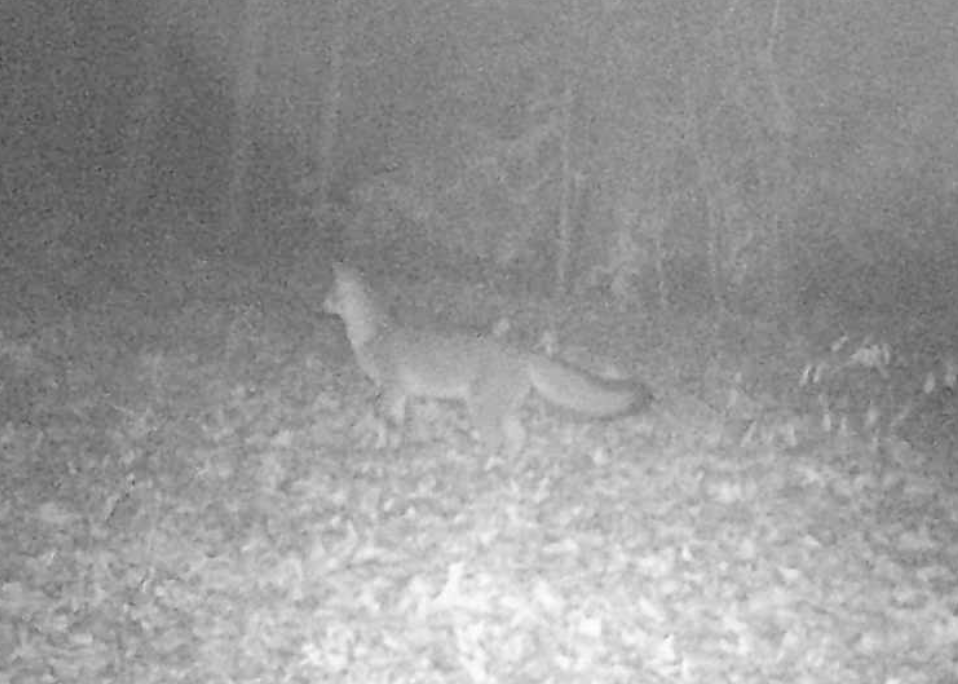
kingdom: Animalia
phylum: Chordata
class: Mammalia
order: Carnivora
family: Canidae
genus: Urocyon
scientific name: Urocyon cinereoargenteus
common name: Gray fox
